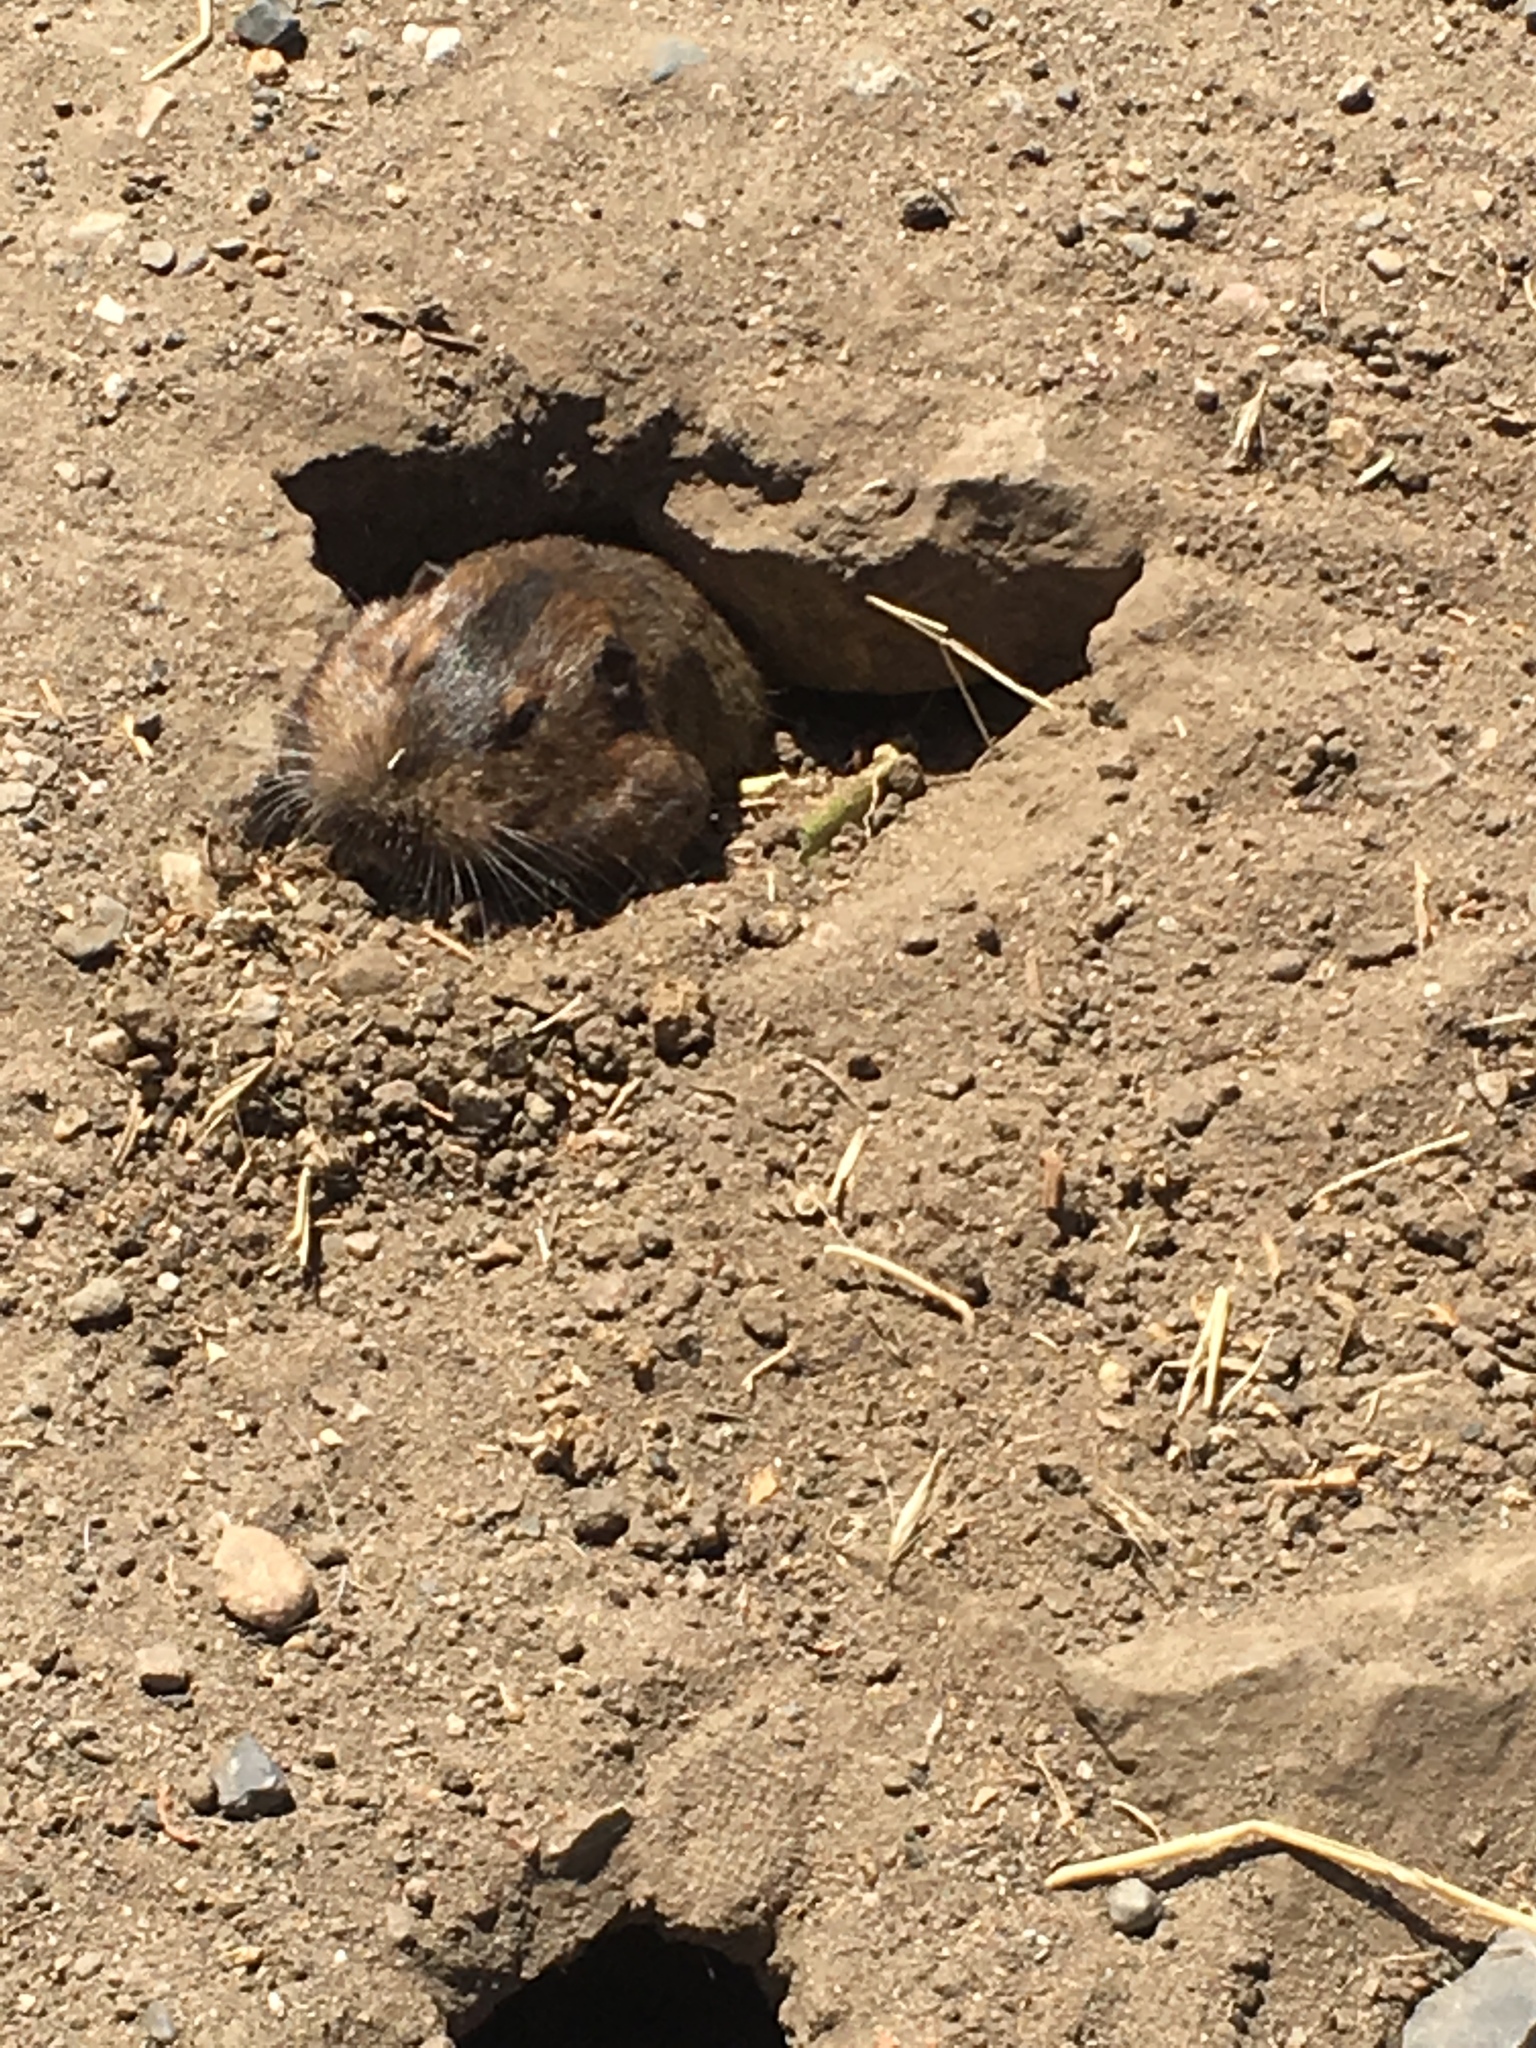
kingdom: Animalia
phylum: Chordata
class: Mammalia
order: Rodentia
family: Geomyidae
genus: Thomomys
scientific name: Thomomys bottae
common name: Botta's pocket gopher
